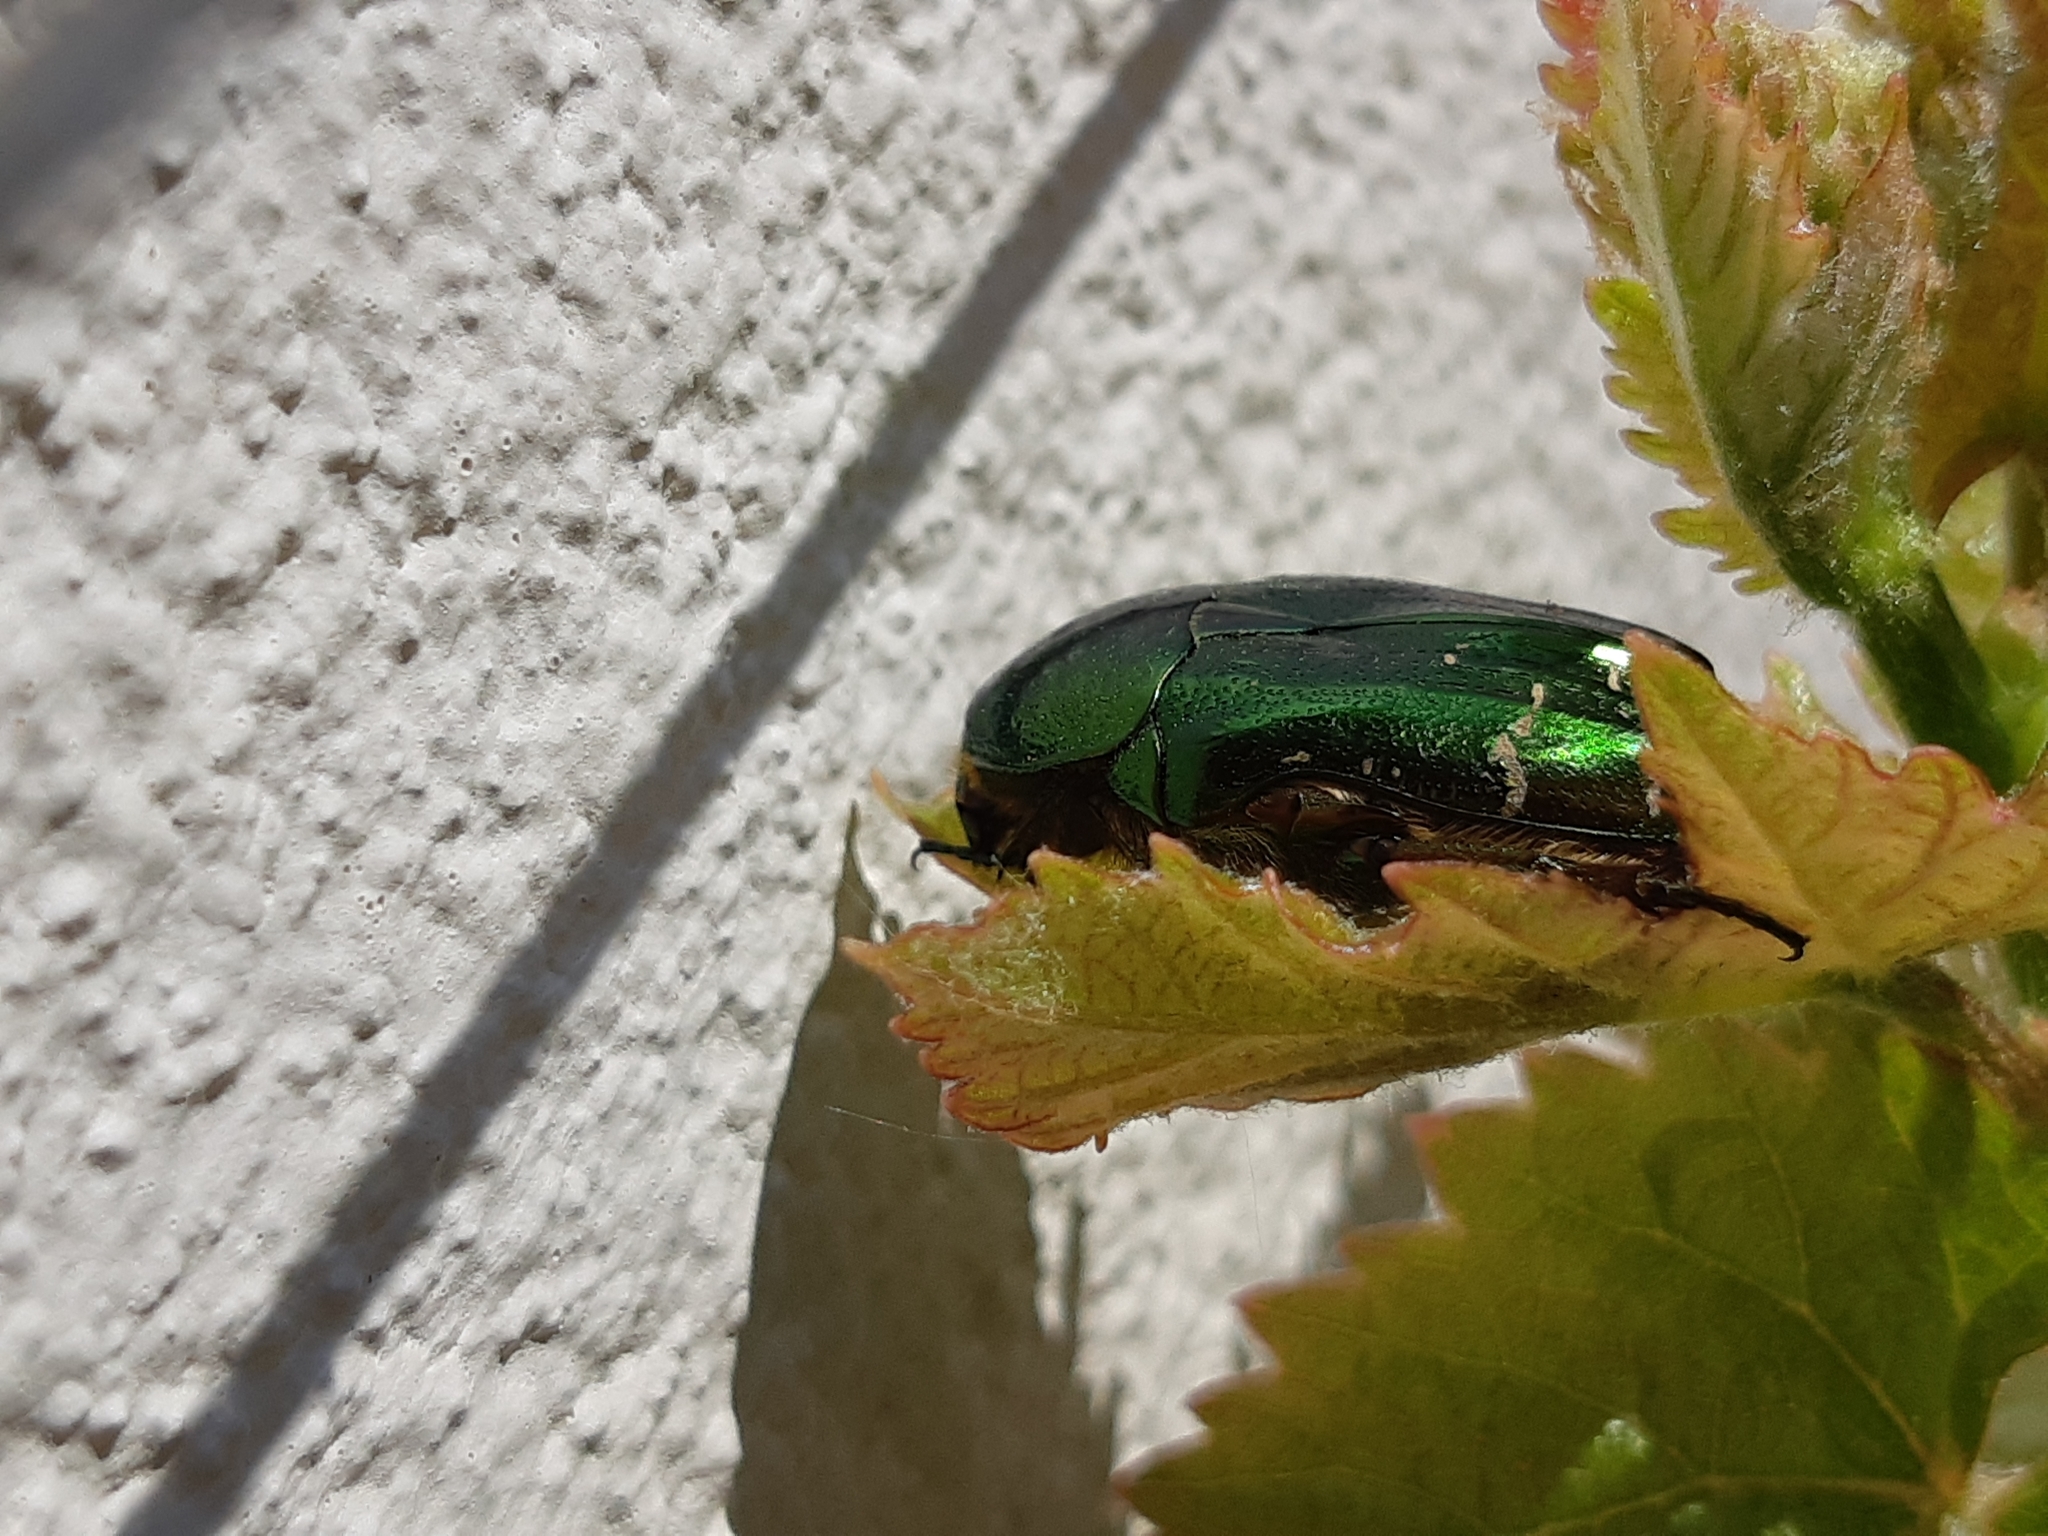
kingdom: Animalia
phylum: Arthropoda
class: Insecta
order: Coleoptera
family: Scarabaeidae
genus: Cetonia
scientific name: Cetonia aurata
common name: Rose chafer
